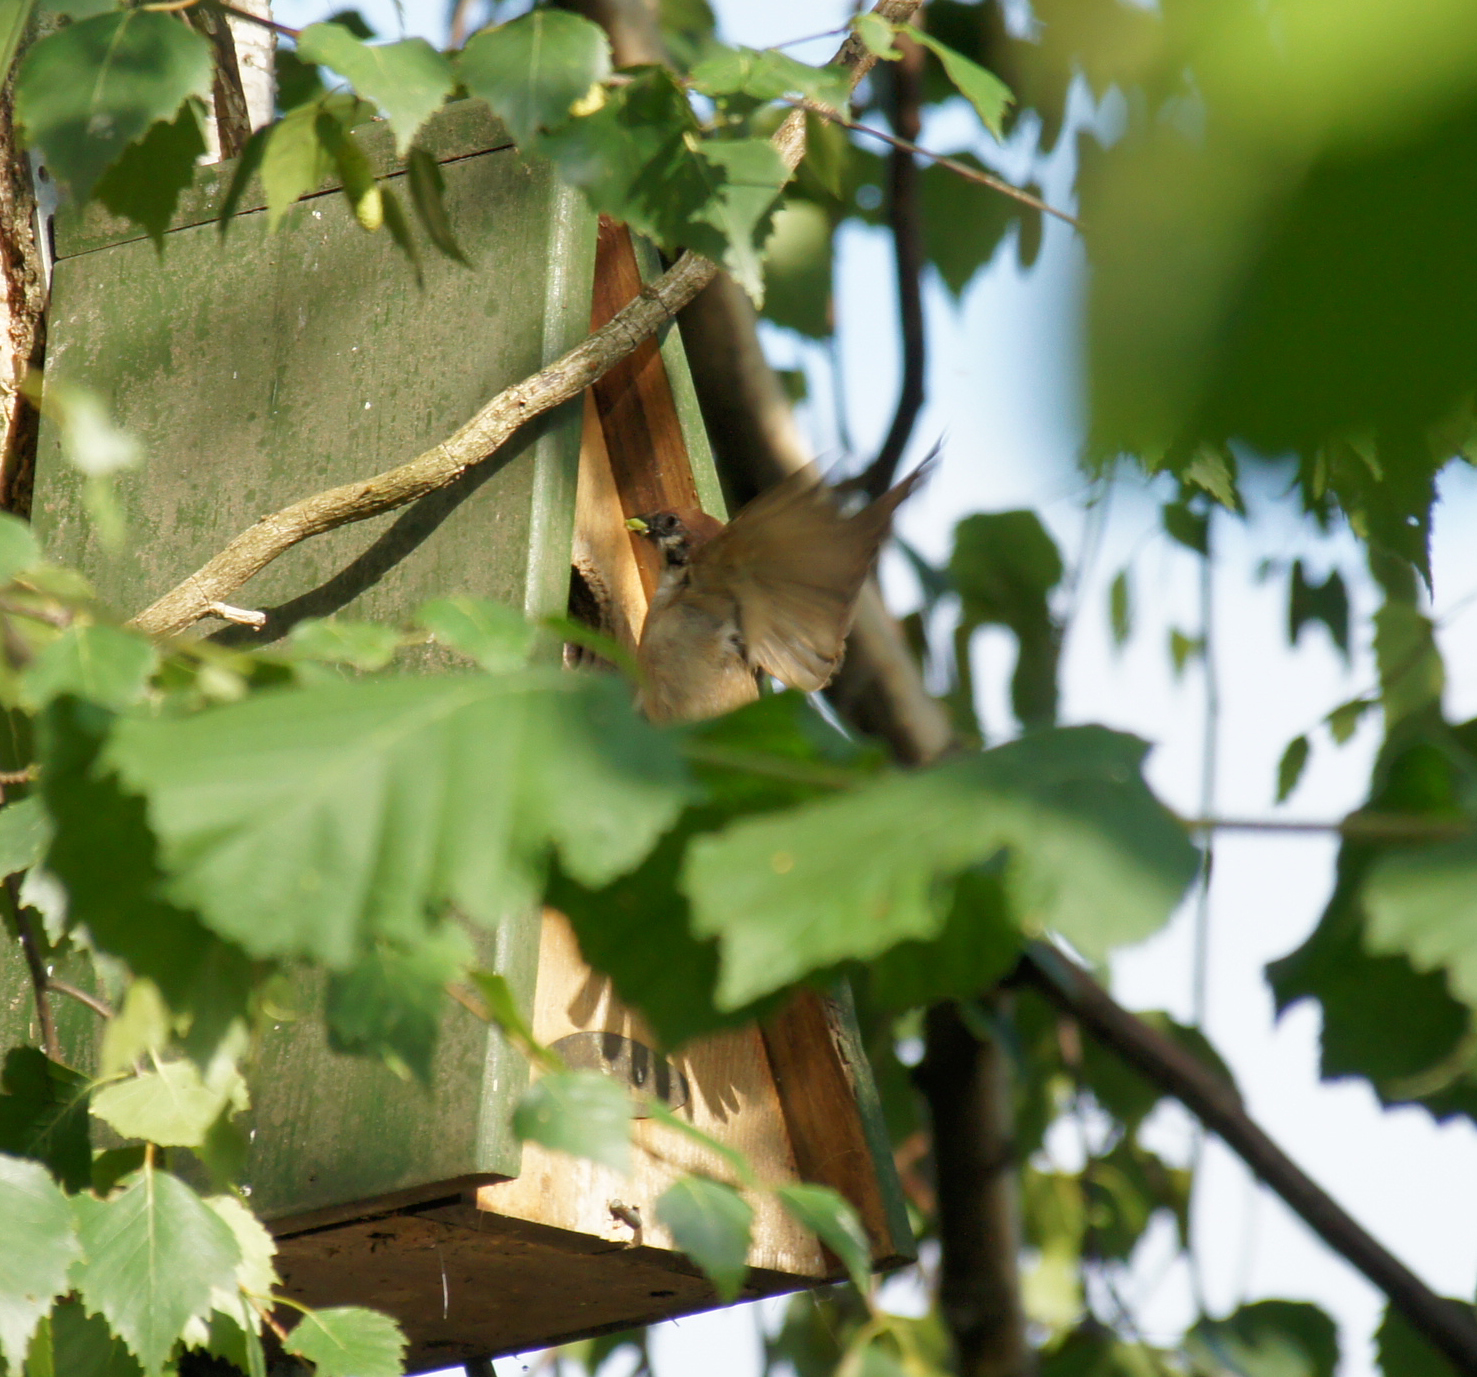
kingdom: Animalia
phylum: Chordata
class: Aves
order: Passeriformes
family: Passeridae
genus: Passer
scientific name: Passer montanus
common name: Eurasian tree sparrow
